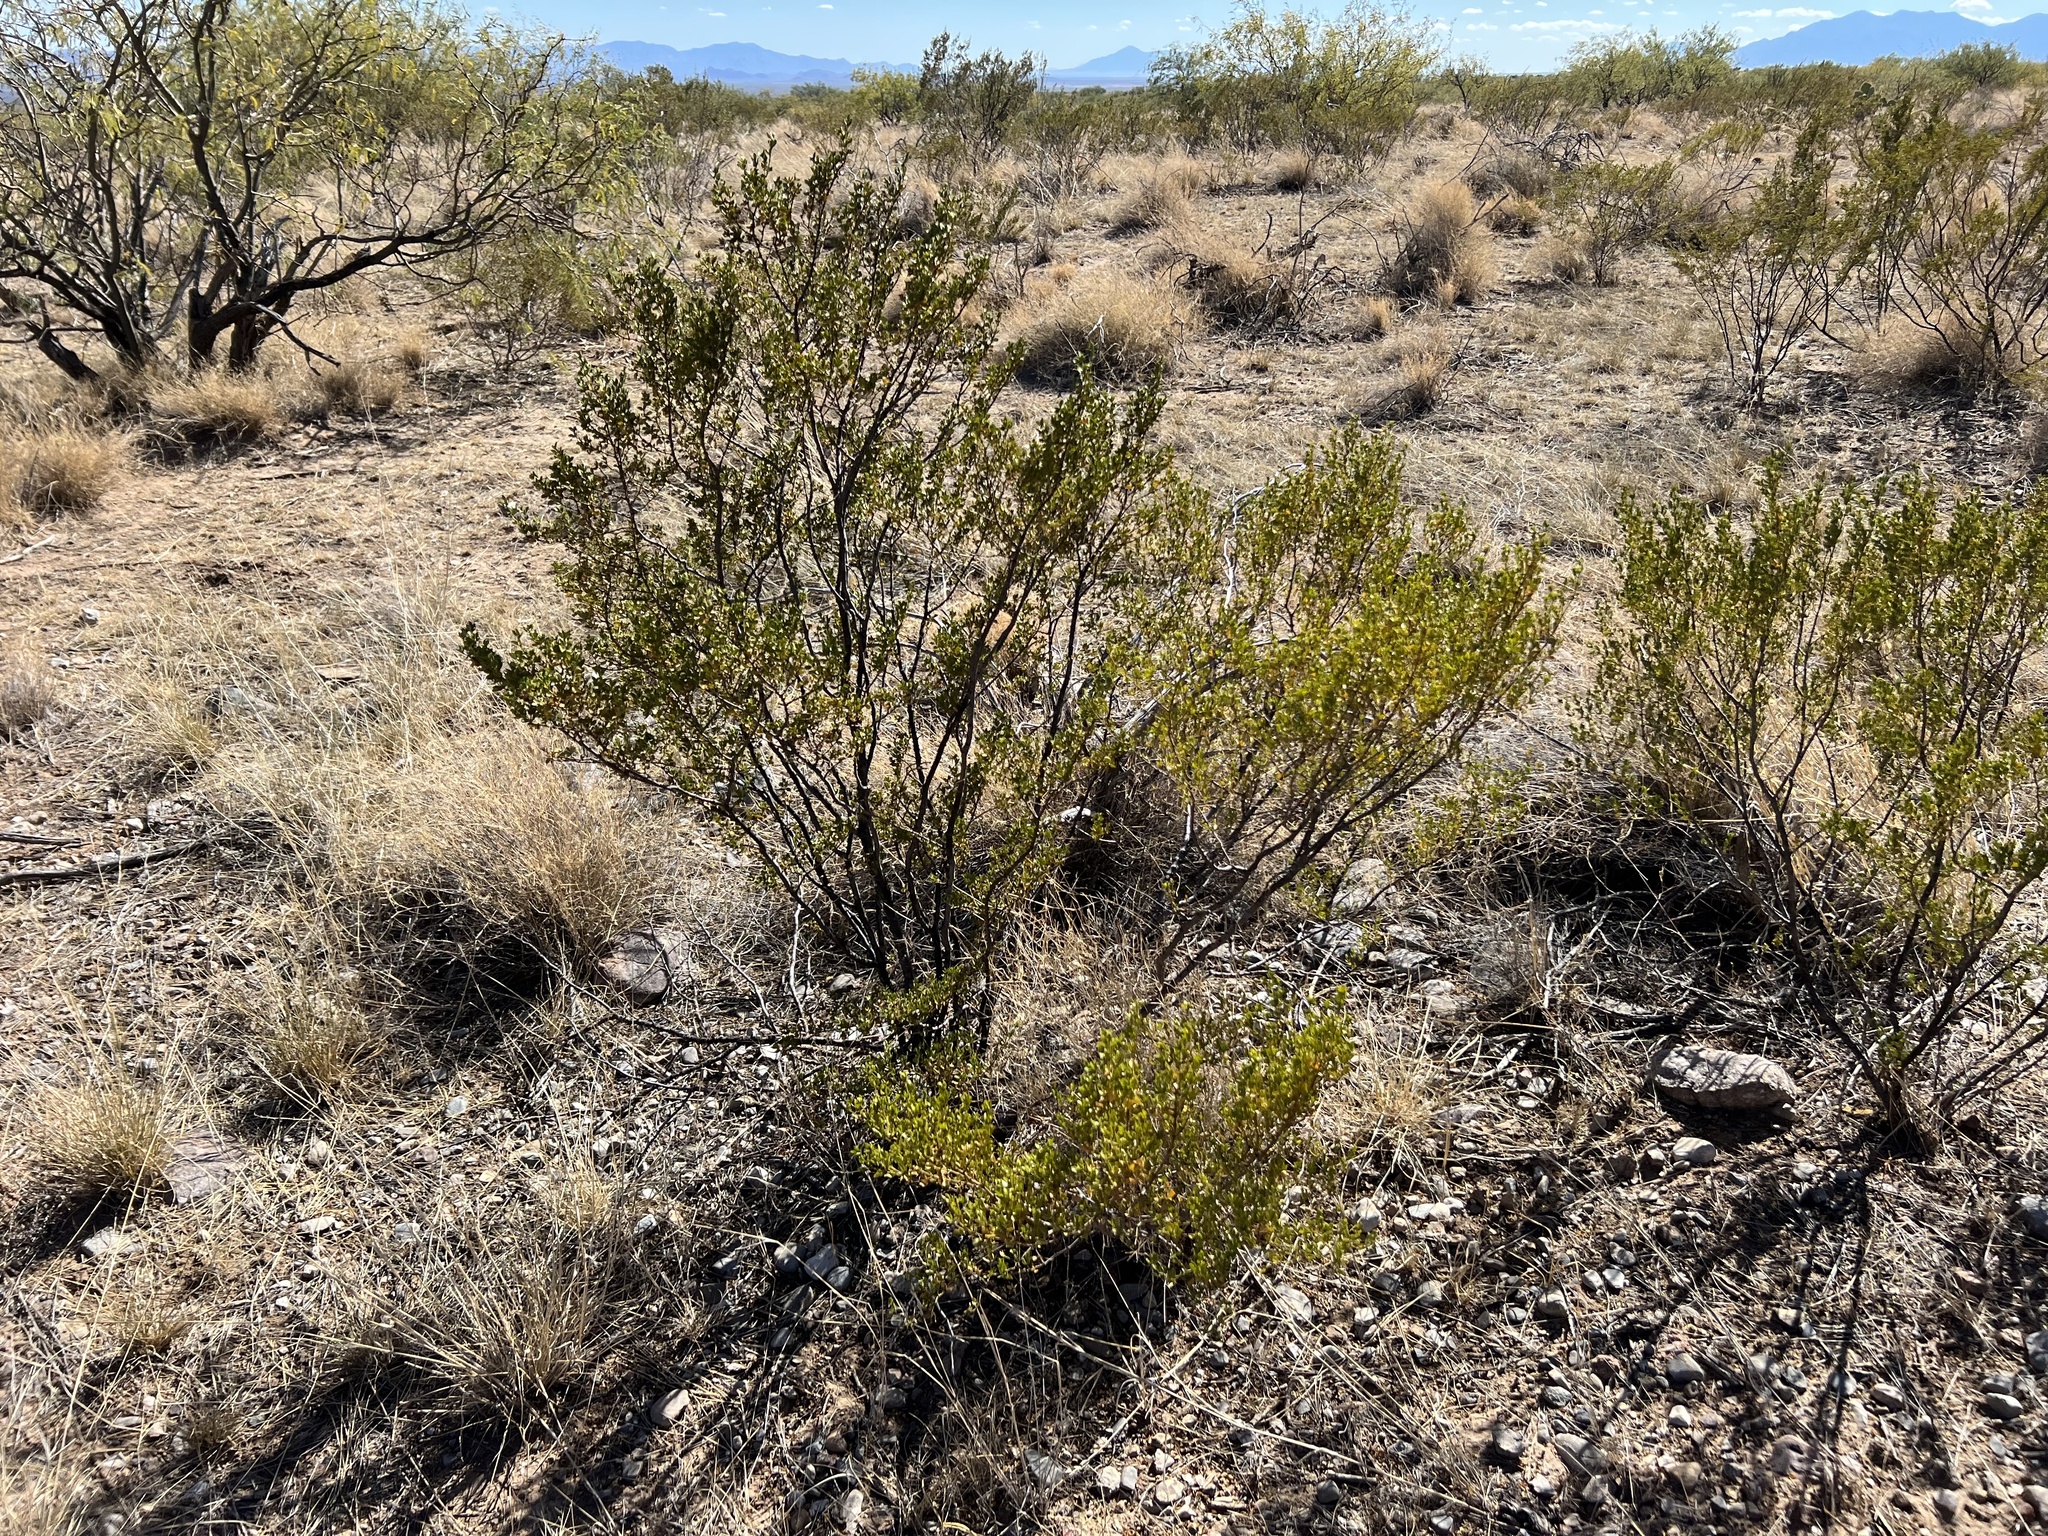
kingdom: Plantae
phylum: Tracheophyta
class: Magnoliopsida
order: Zygophyllales
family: Zygophyllaceae
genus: Larrea
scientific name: Larrea tridentata
